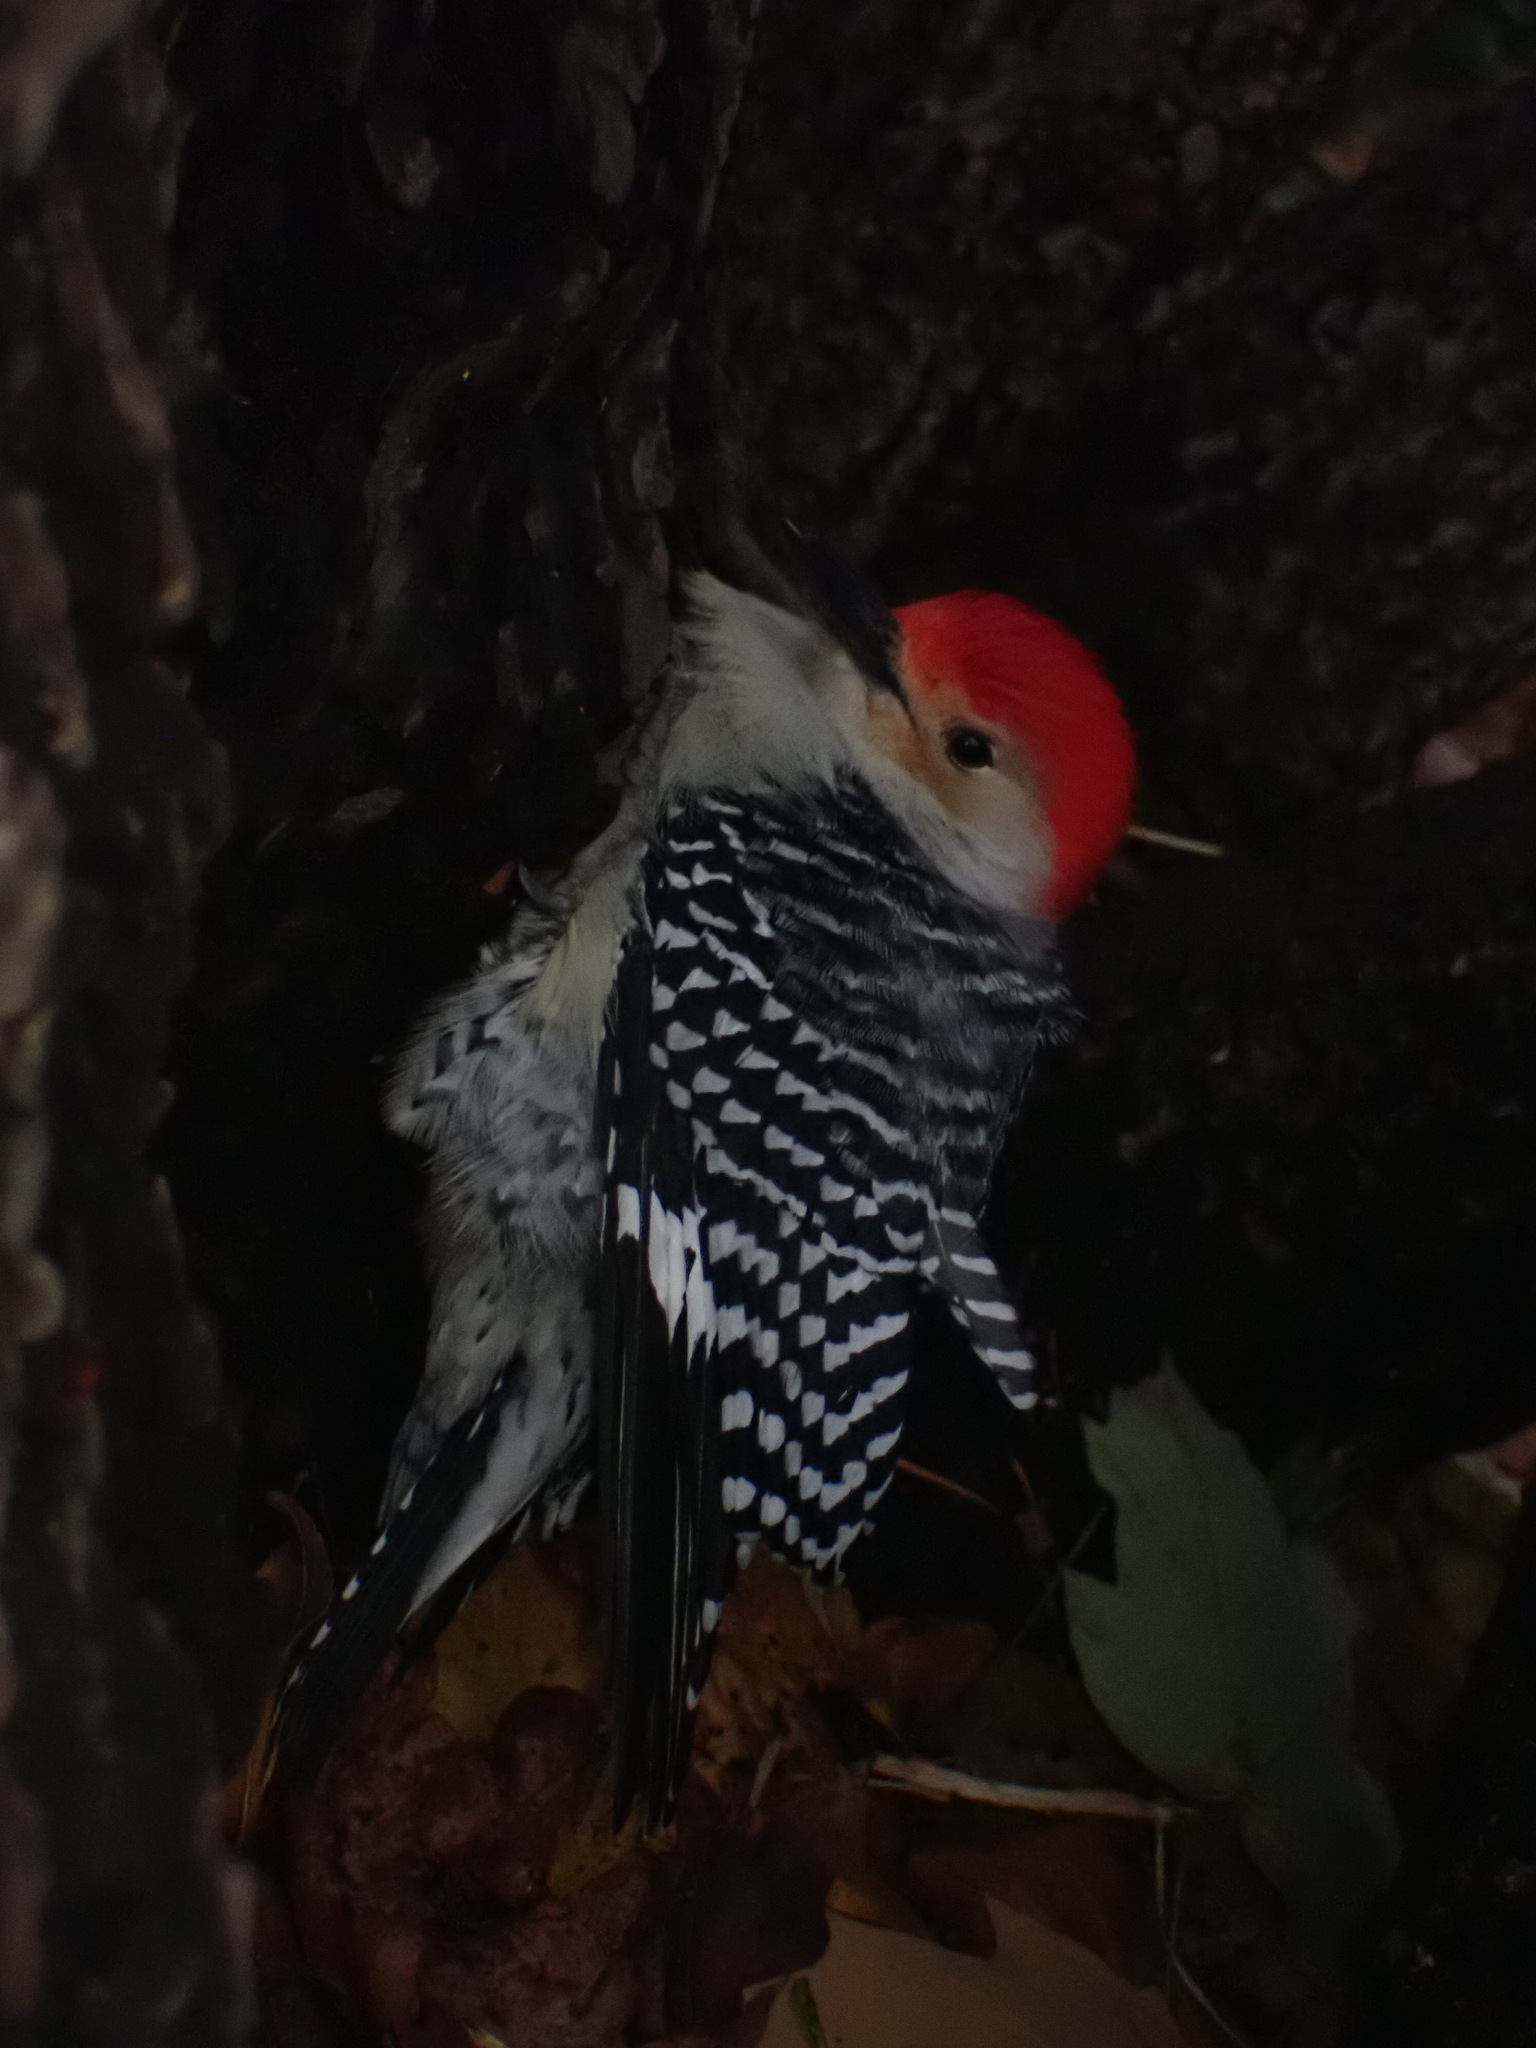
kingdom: Animalia
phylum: Chordata
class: Aves
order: Piciformes
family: Picidae
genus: Melanerpes
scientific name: Melanerpes carolinus
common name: Red-bellied woodpecker
